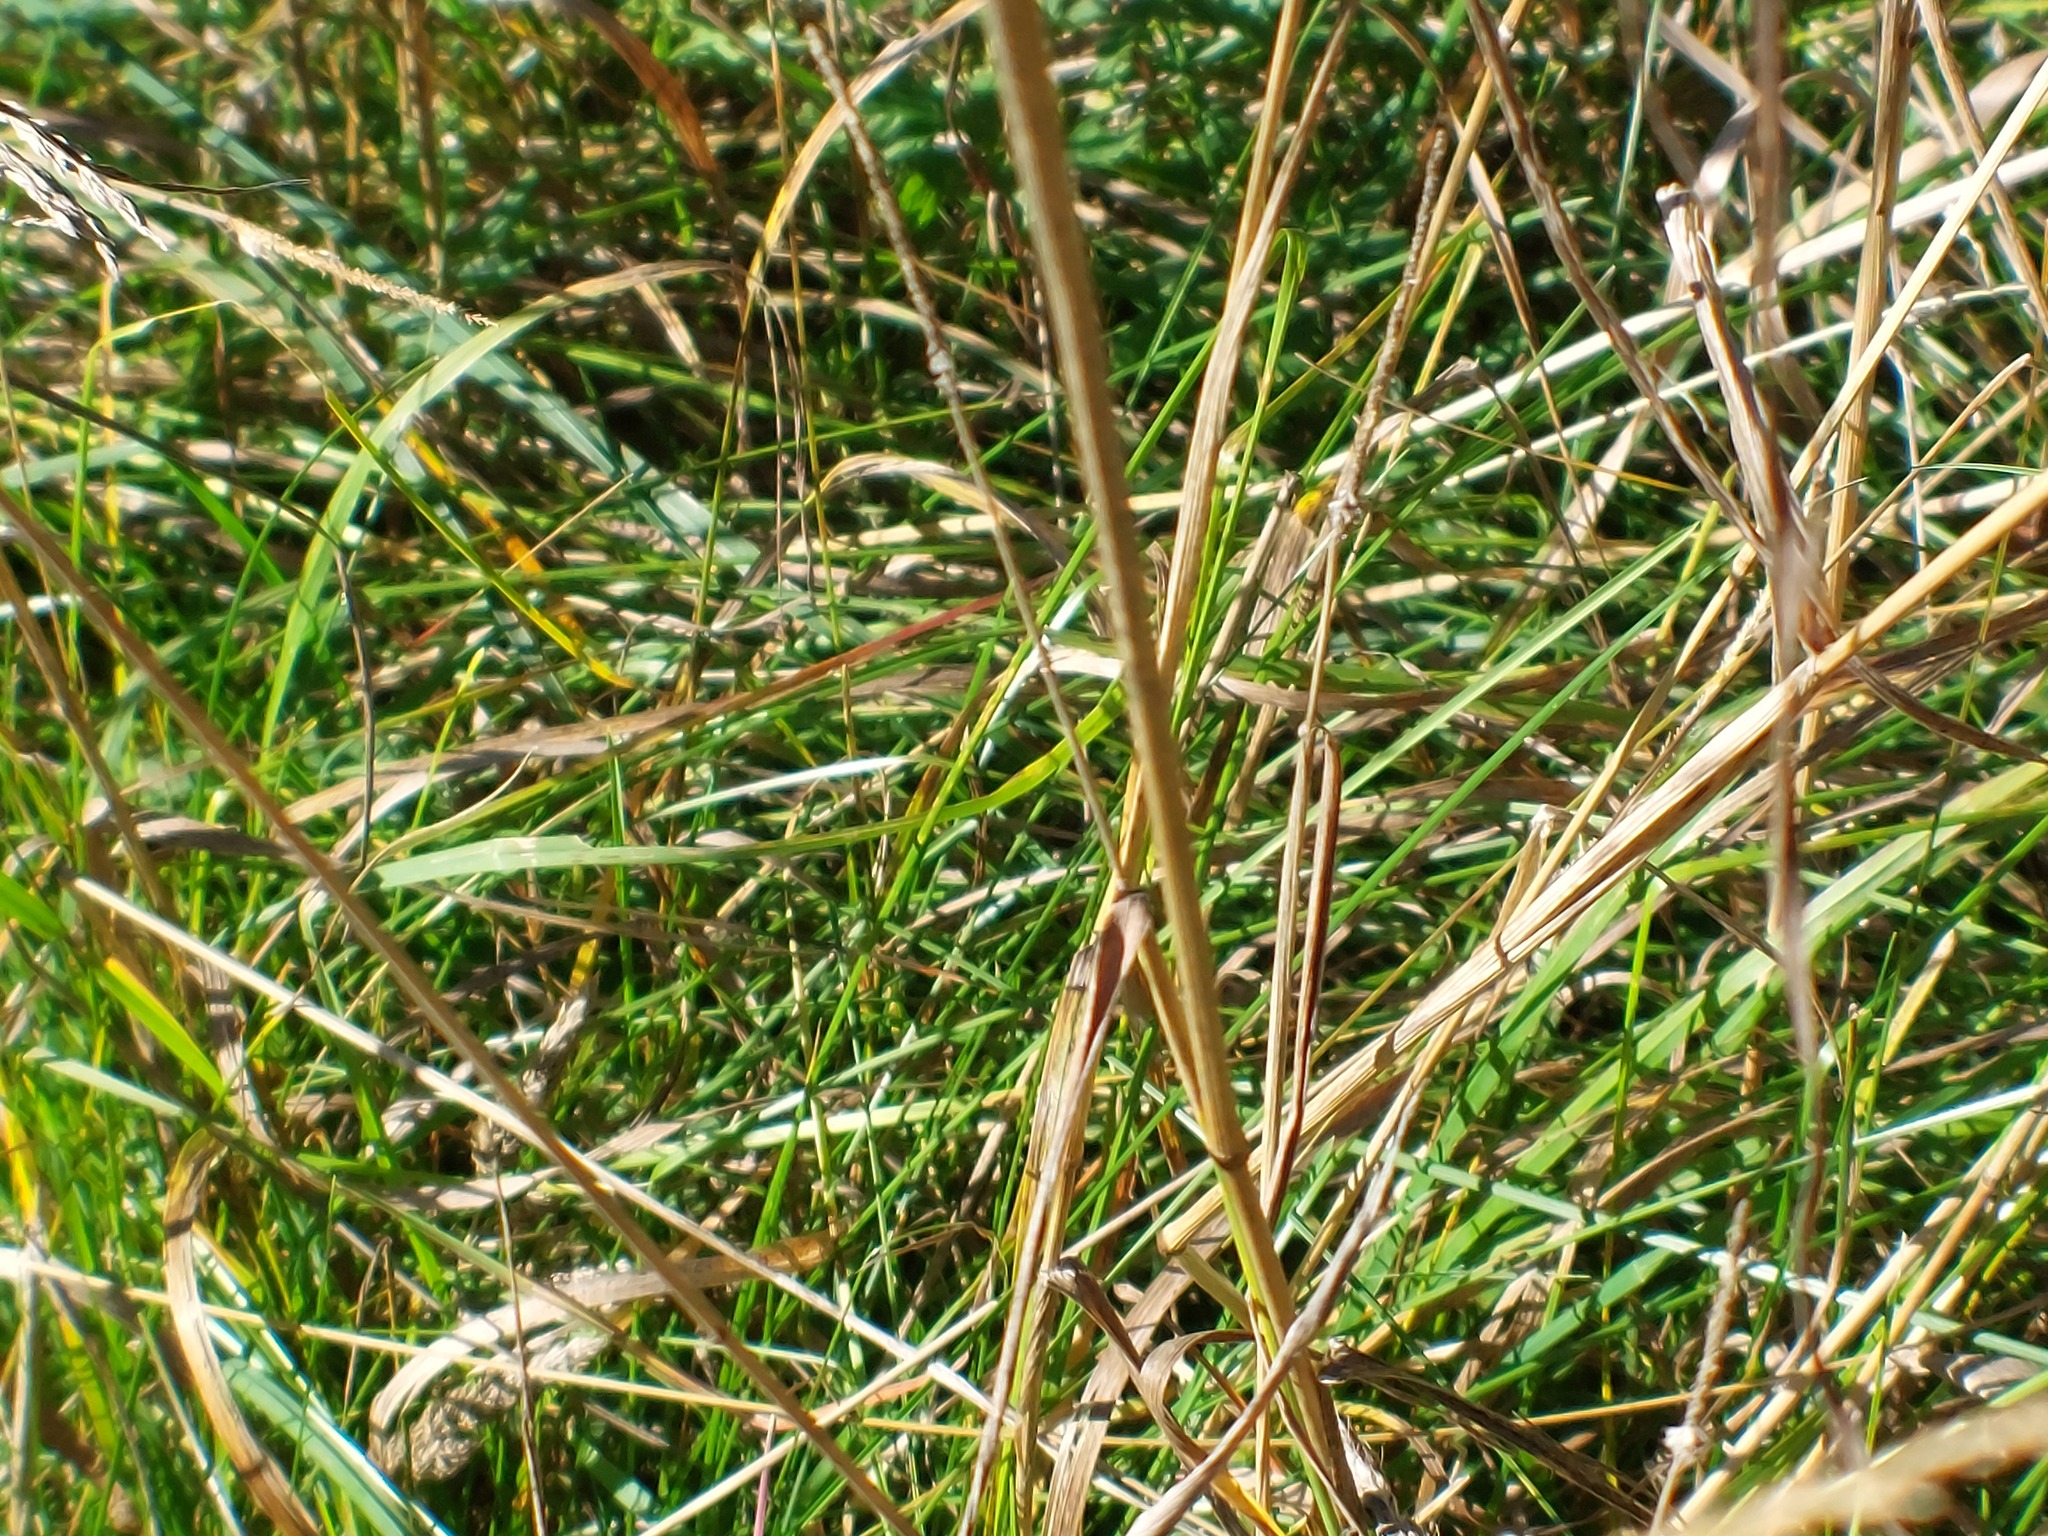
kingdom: Plantae
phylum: Tracheophyta
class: Liliopsida
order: Poales
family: Poaceae
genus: Dactylis
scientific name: Dactylis glomerata
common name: Orchardgrass
